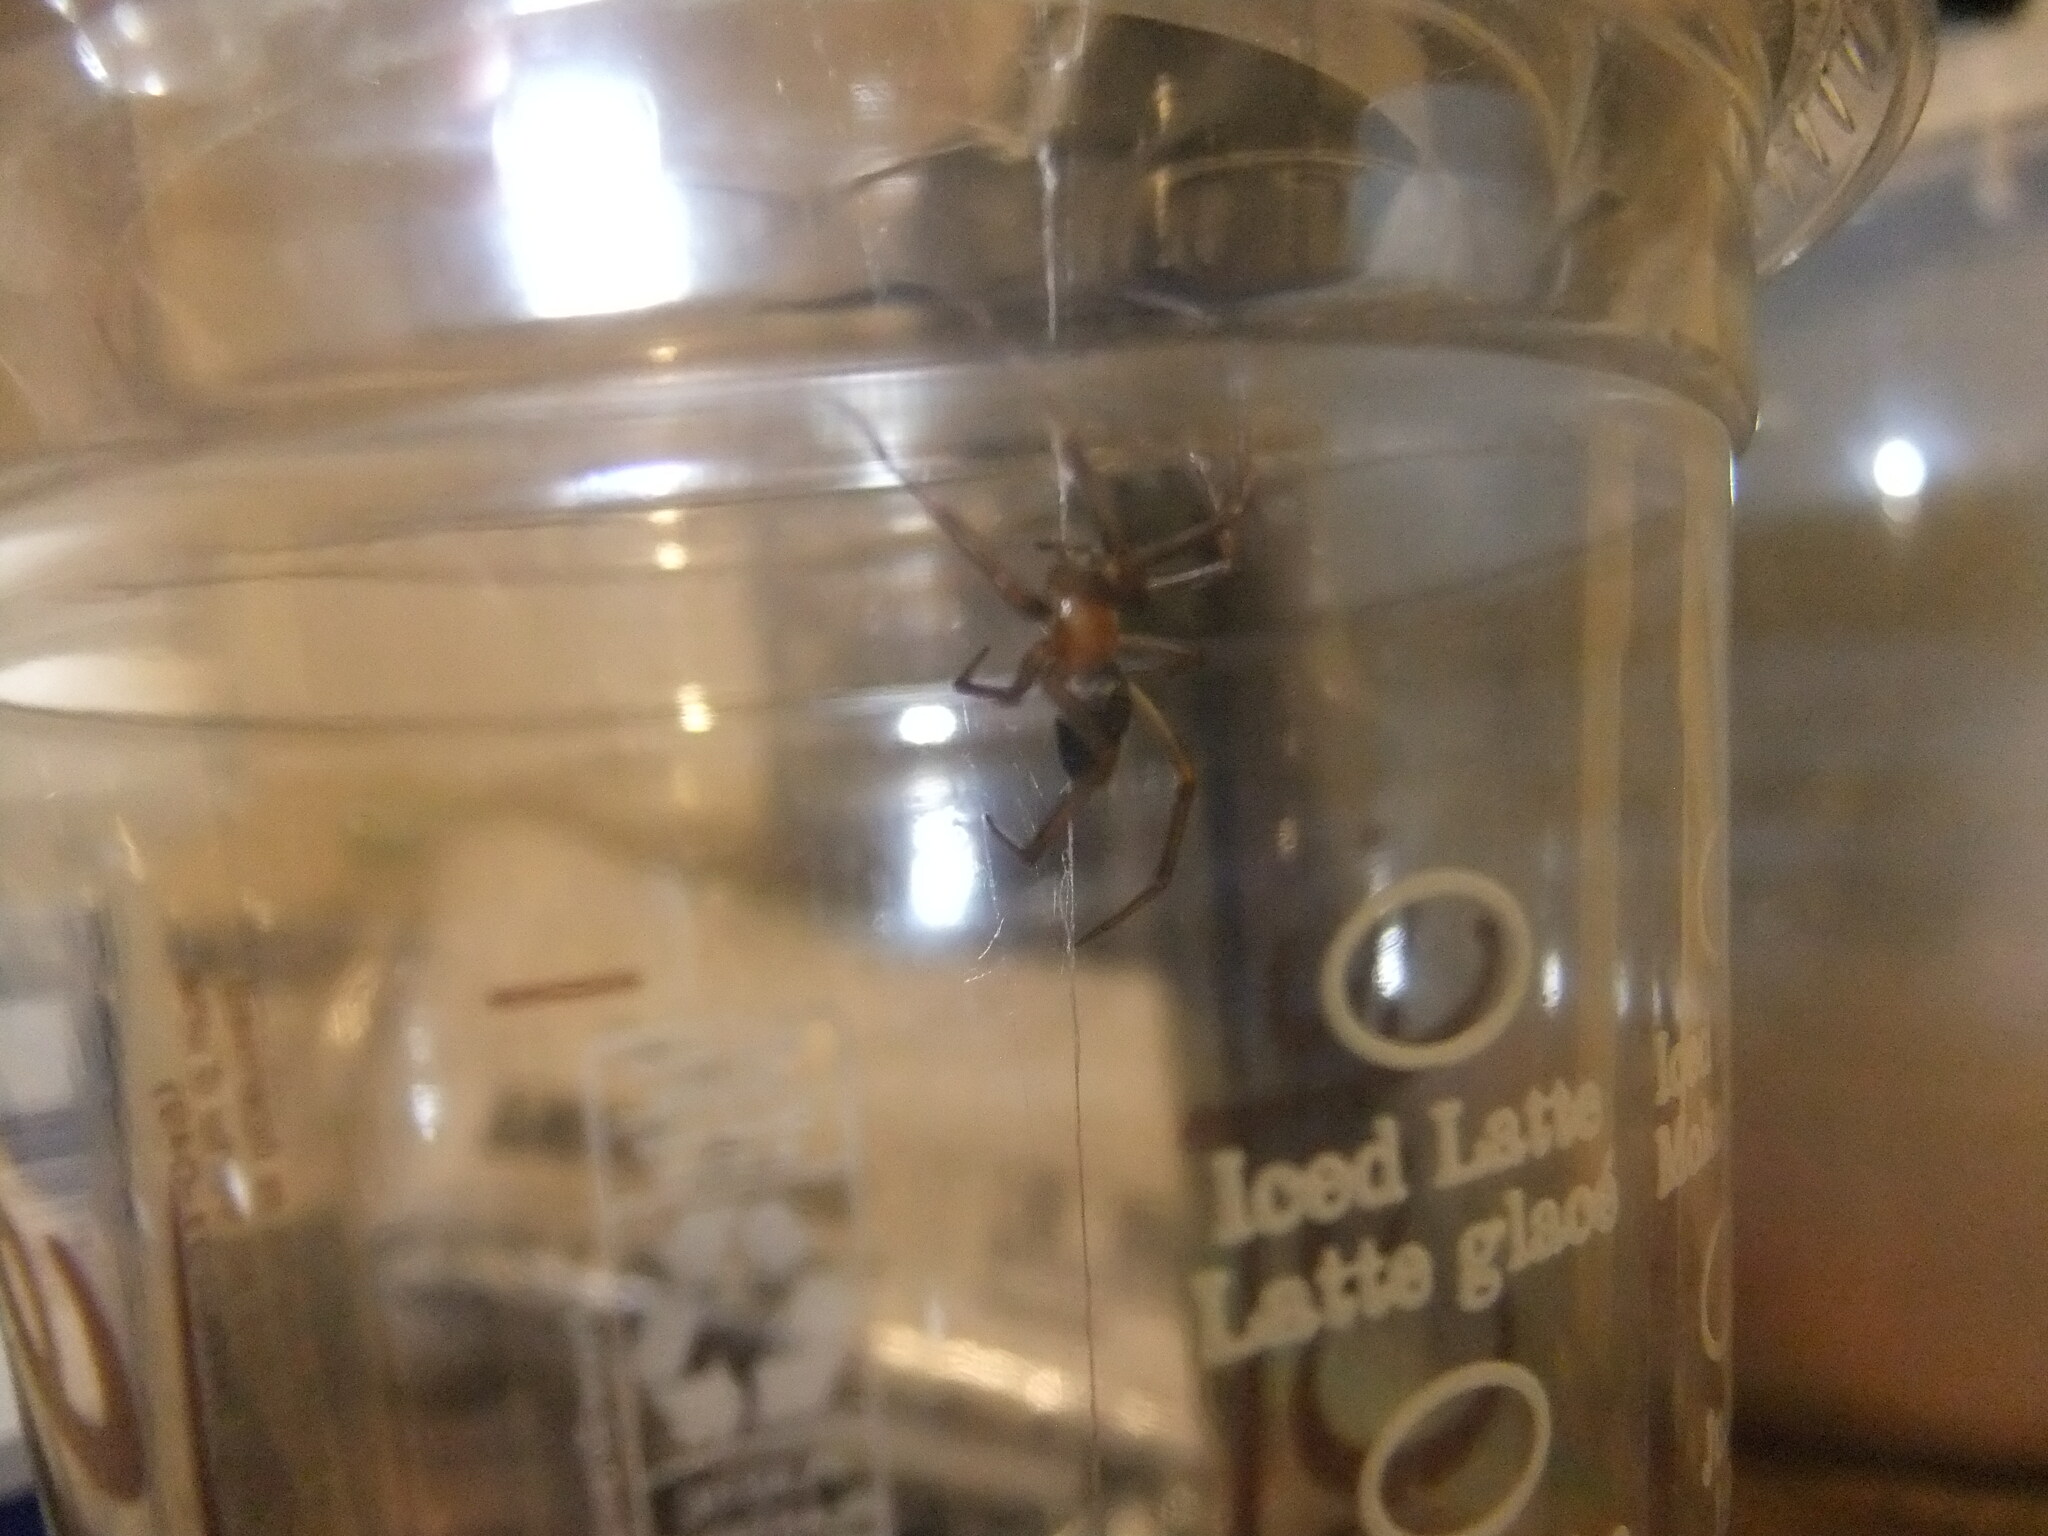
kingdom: Animalia
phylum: Arthropoda
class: Arachnida
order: Araneae
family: Theridiidae
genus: Steatoda
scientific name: Steatoda grossa
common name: False black widow
